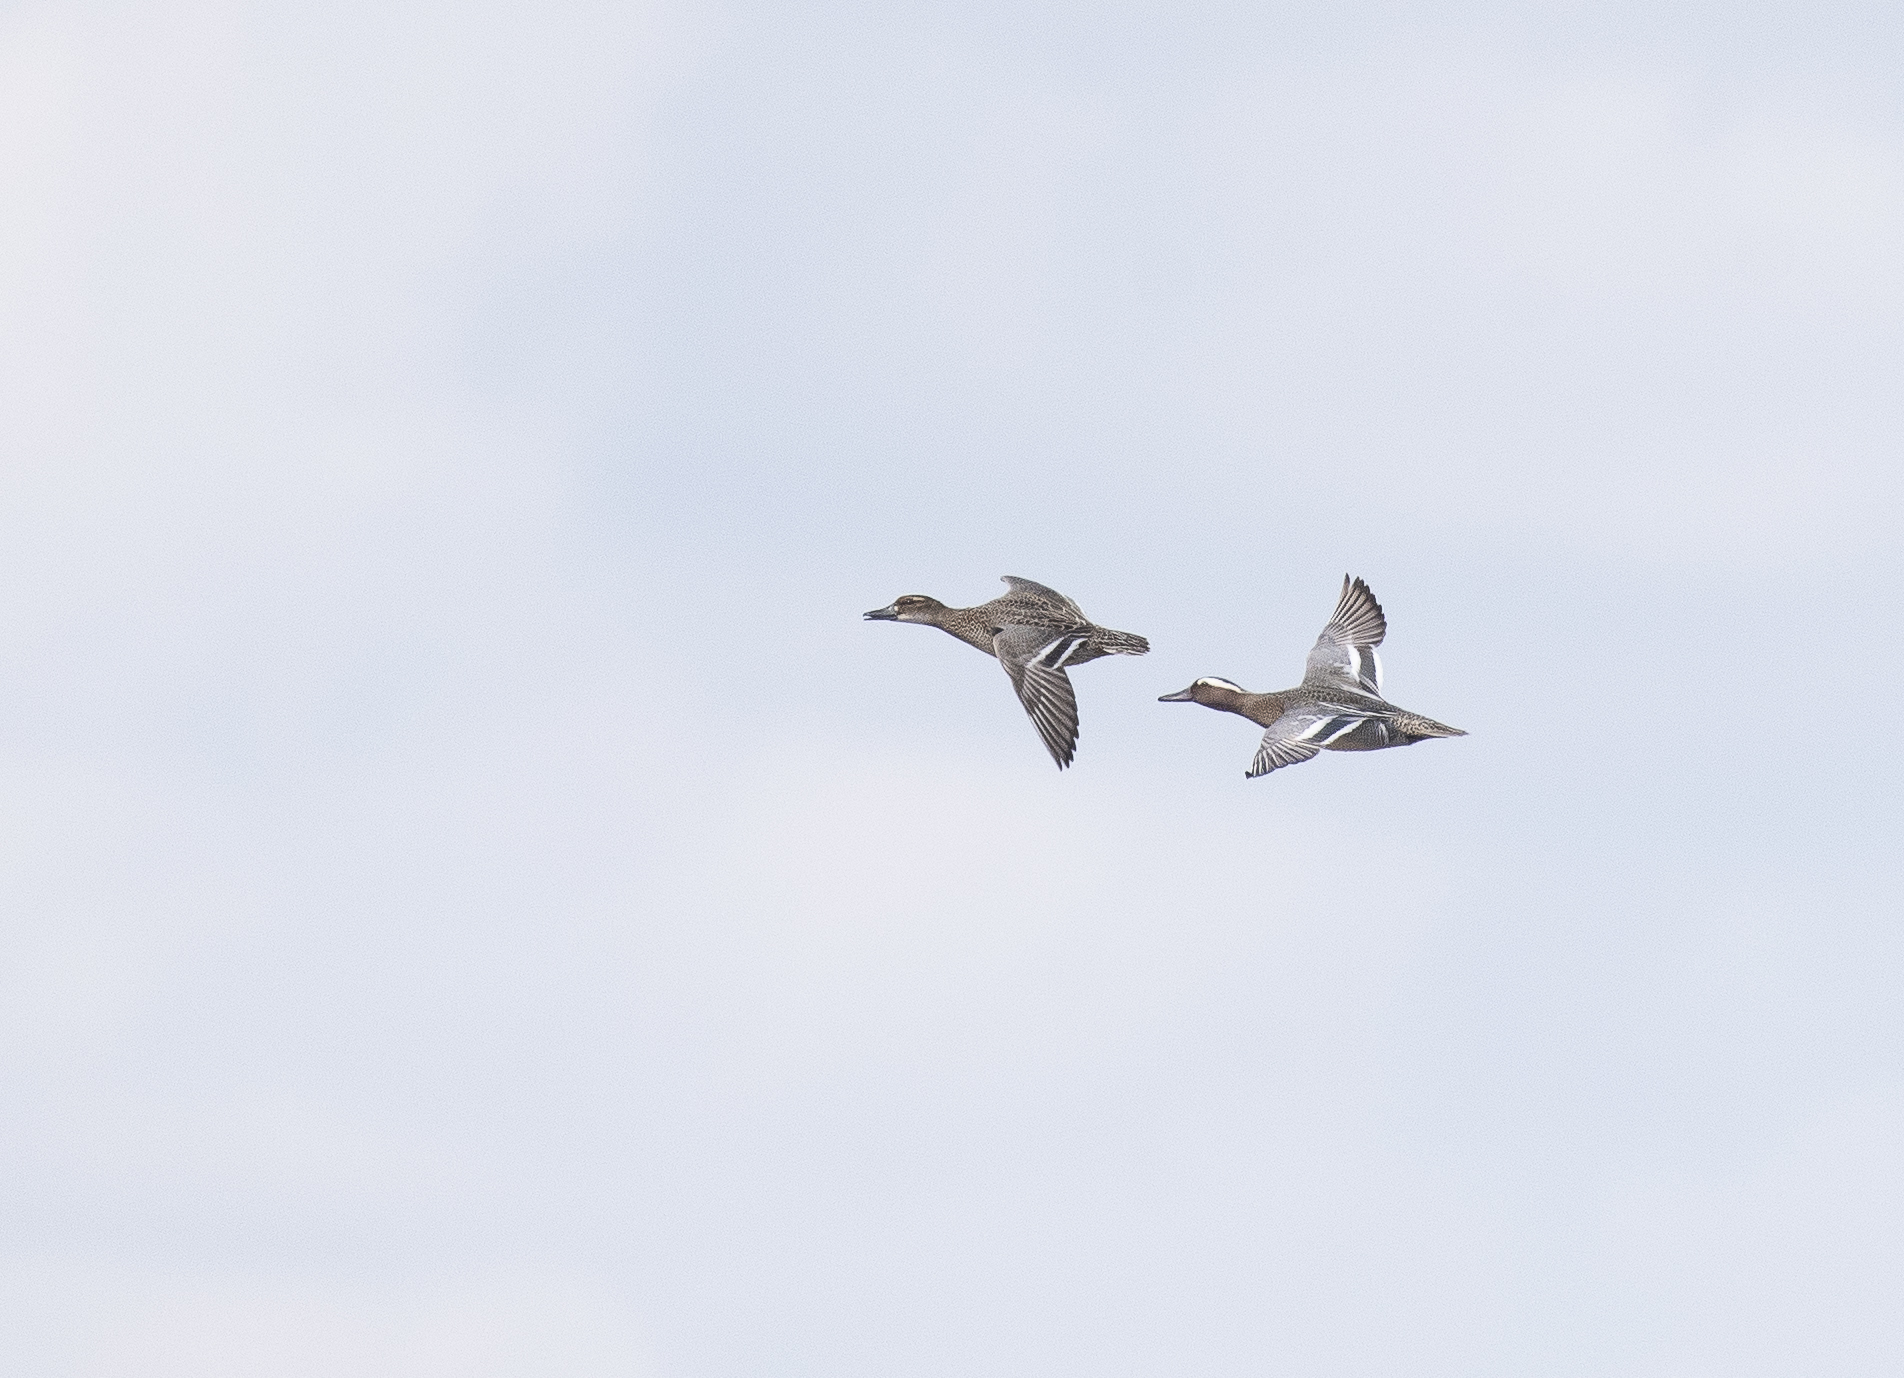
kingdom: Animalia
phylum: Chordata
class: Aves
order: Anseriformes
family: Anatidae
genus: Spatula
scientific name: Spatula querquedula
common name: Garganey
